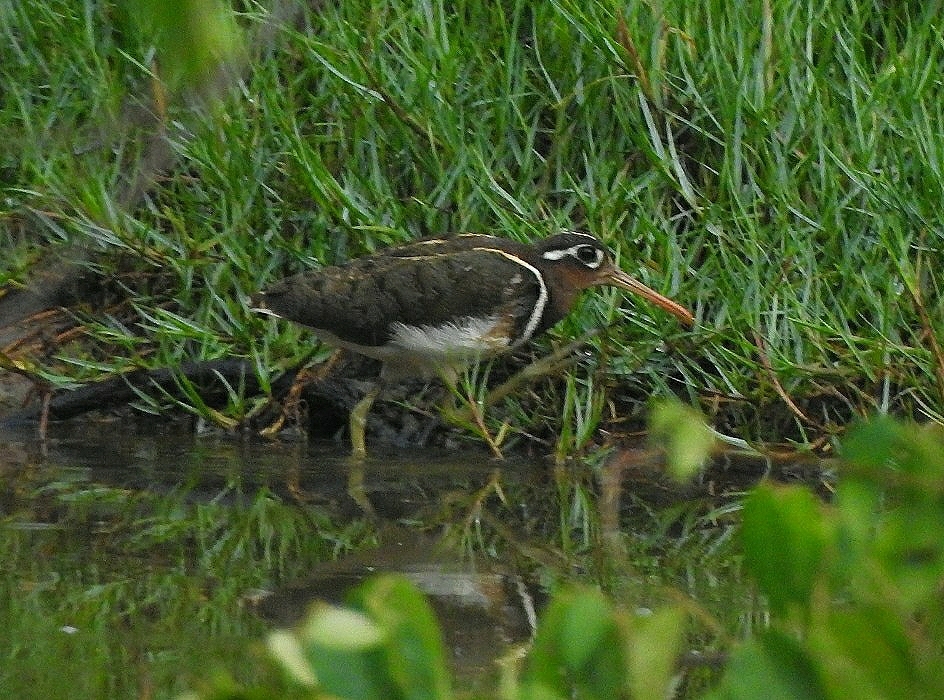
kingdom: Animalia
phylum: Chordata
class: Aves
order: Charadriiformes
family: Rostratulidae
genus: Rostratula
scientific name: Rostratula benghalensis
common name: Greater painted-snipe
